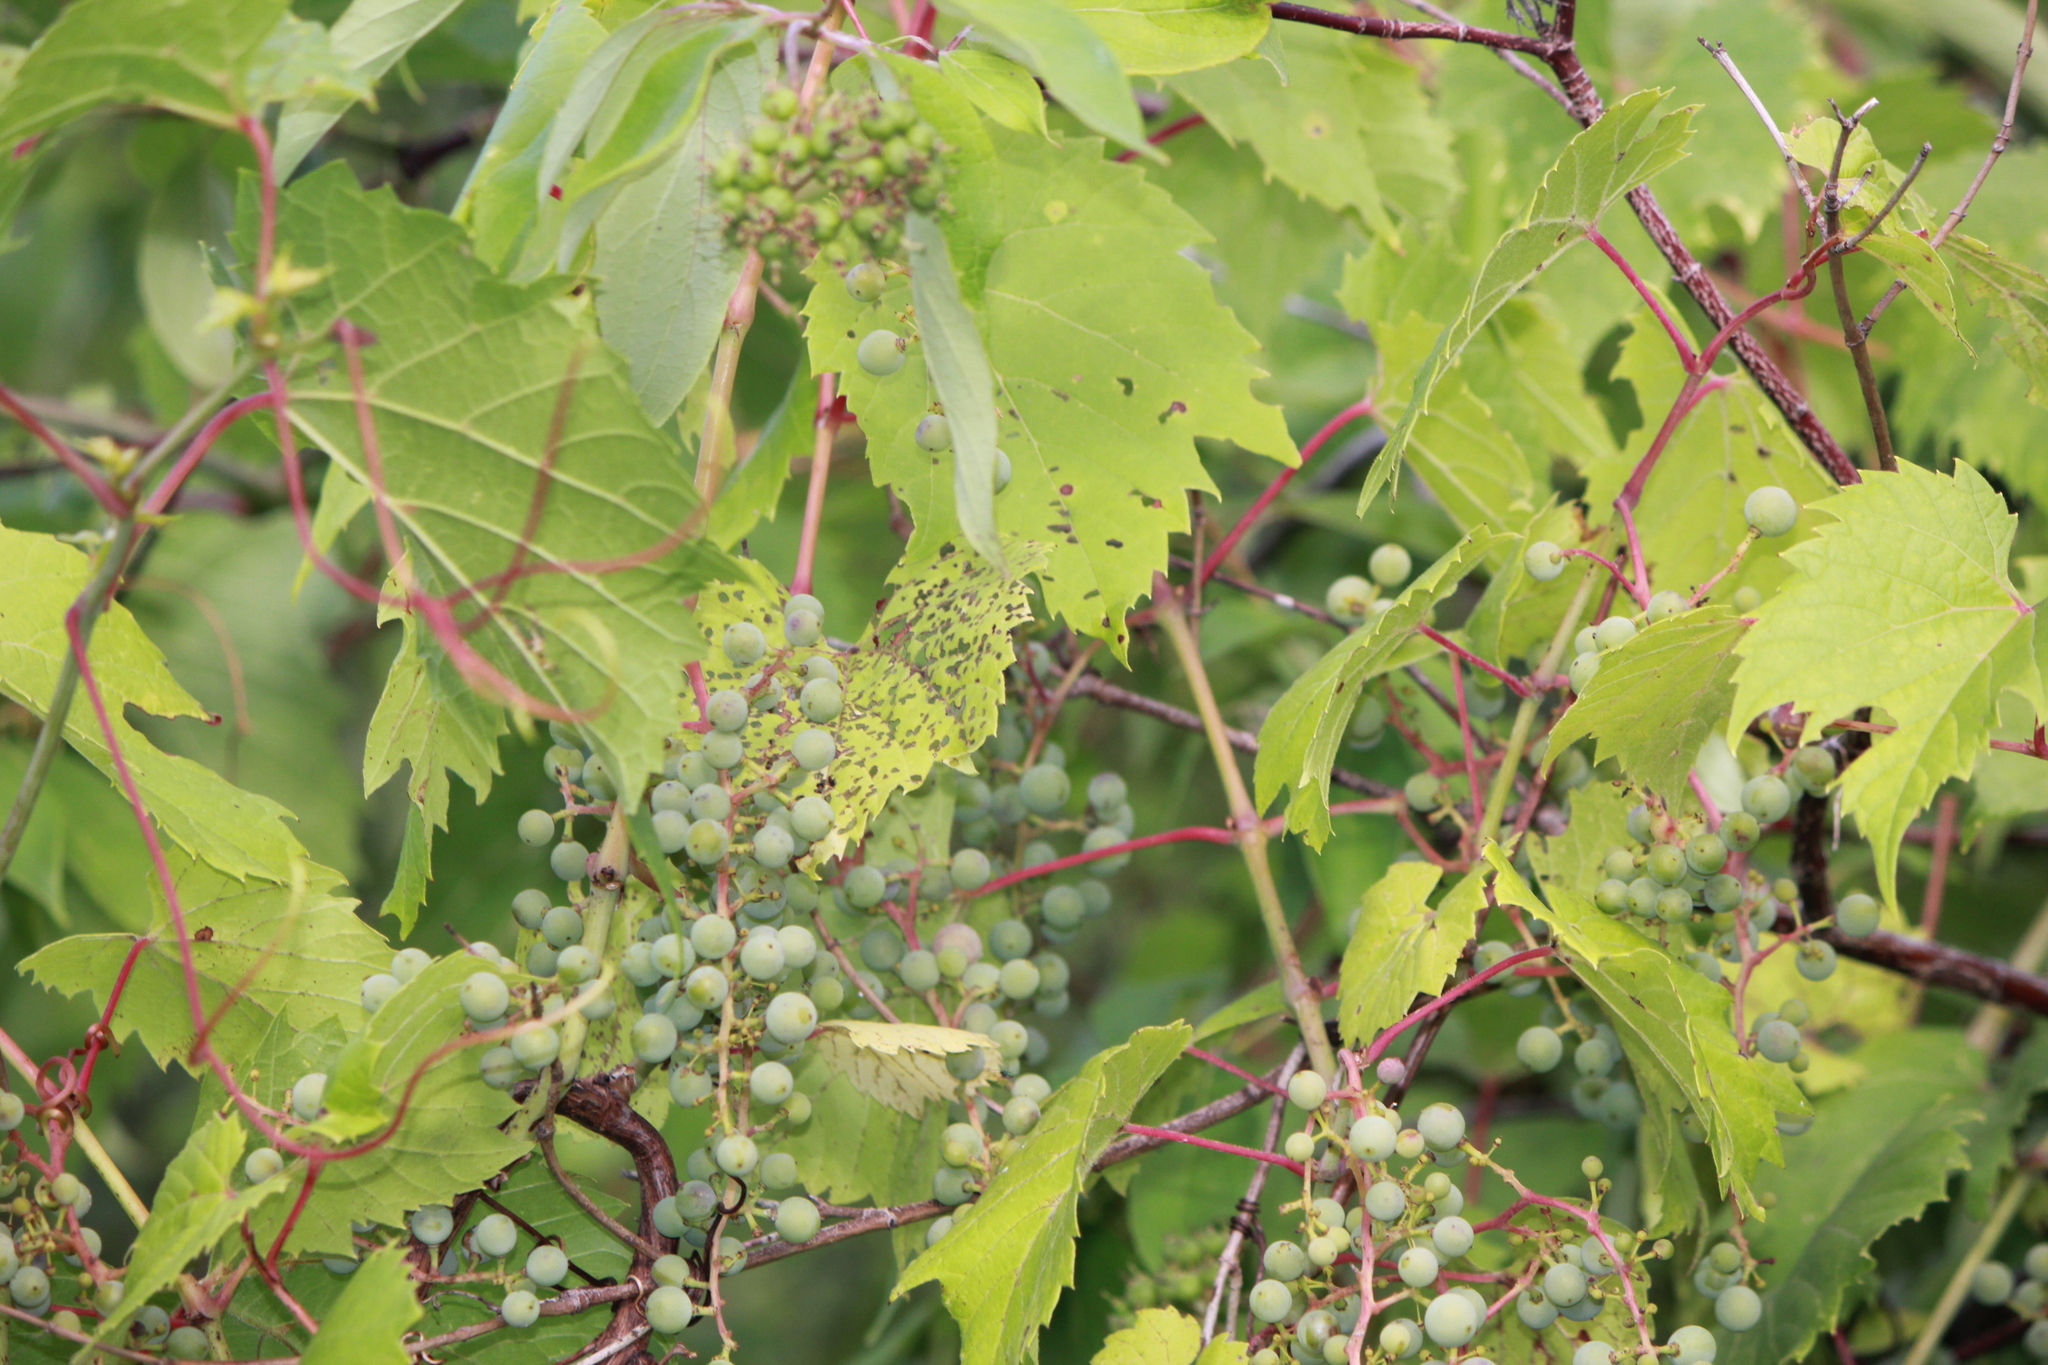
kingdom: Plantae
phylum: Tracheophyta
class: Magnoliopsida
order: Vitales
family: Vitaceae
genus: Vitis
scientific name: Vitis riparia
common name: Frost grape
